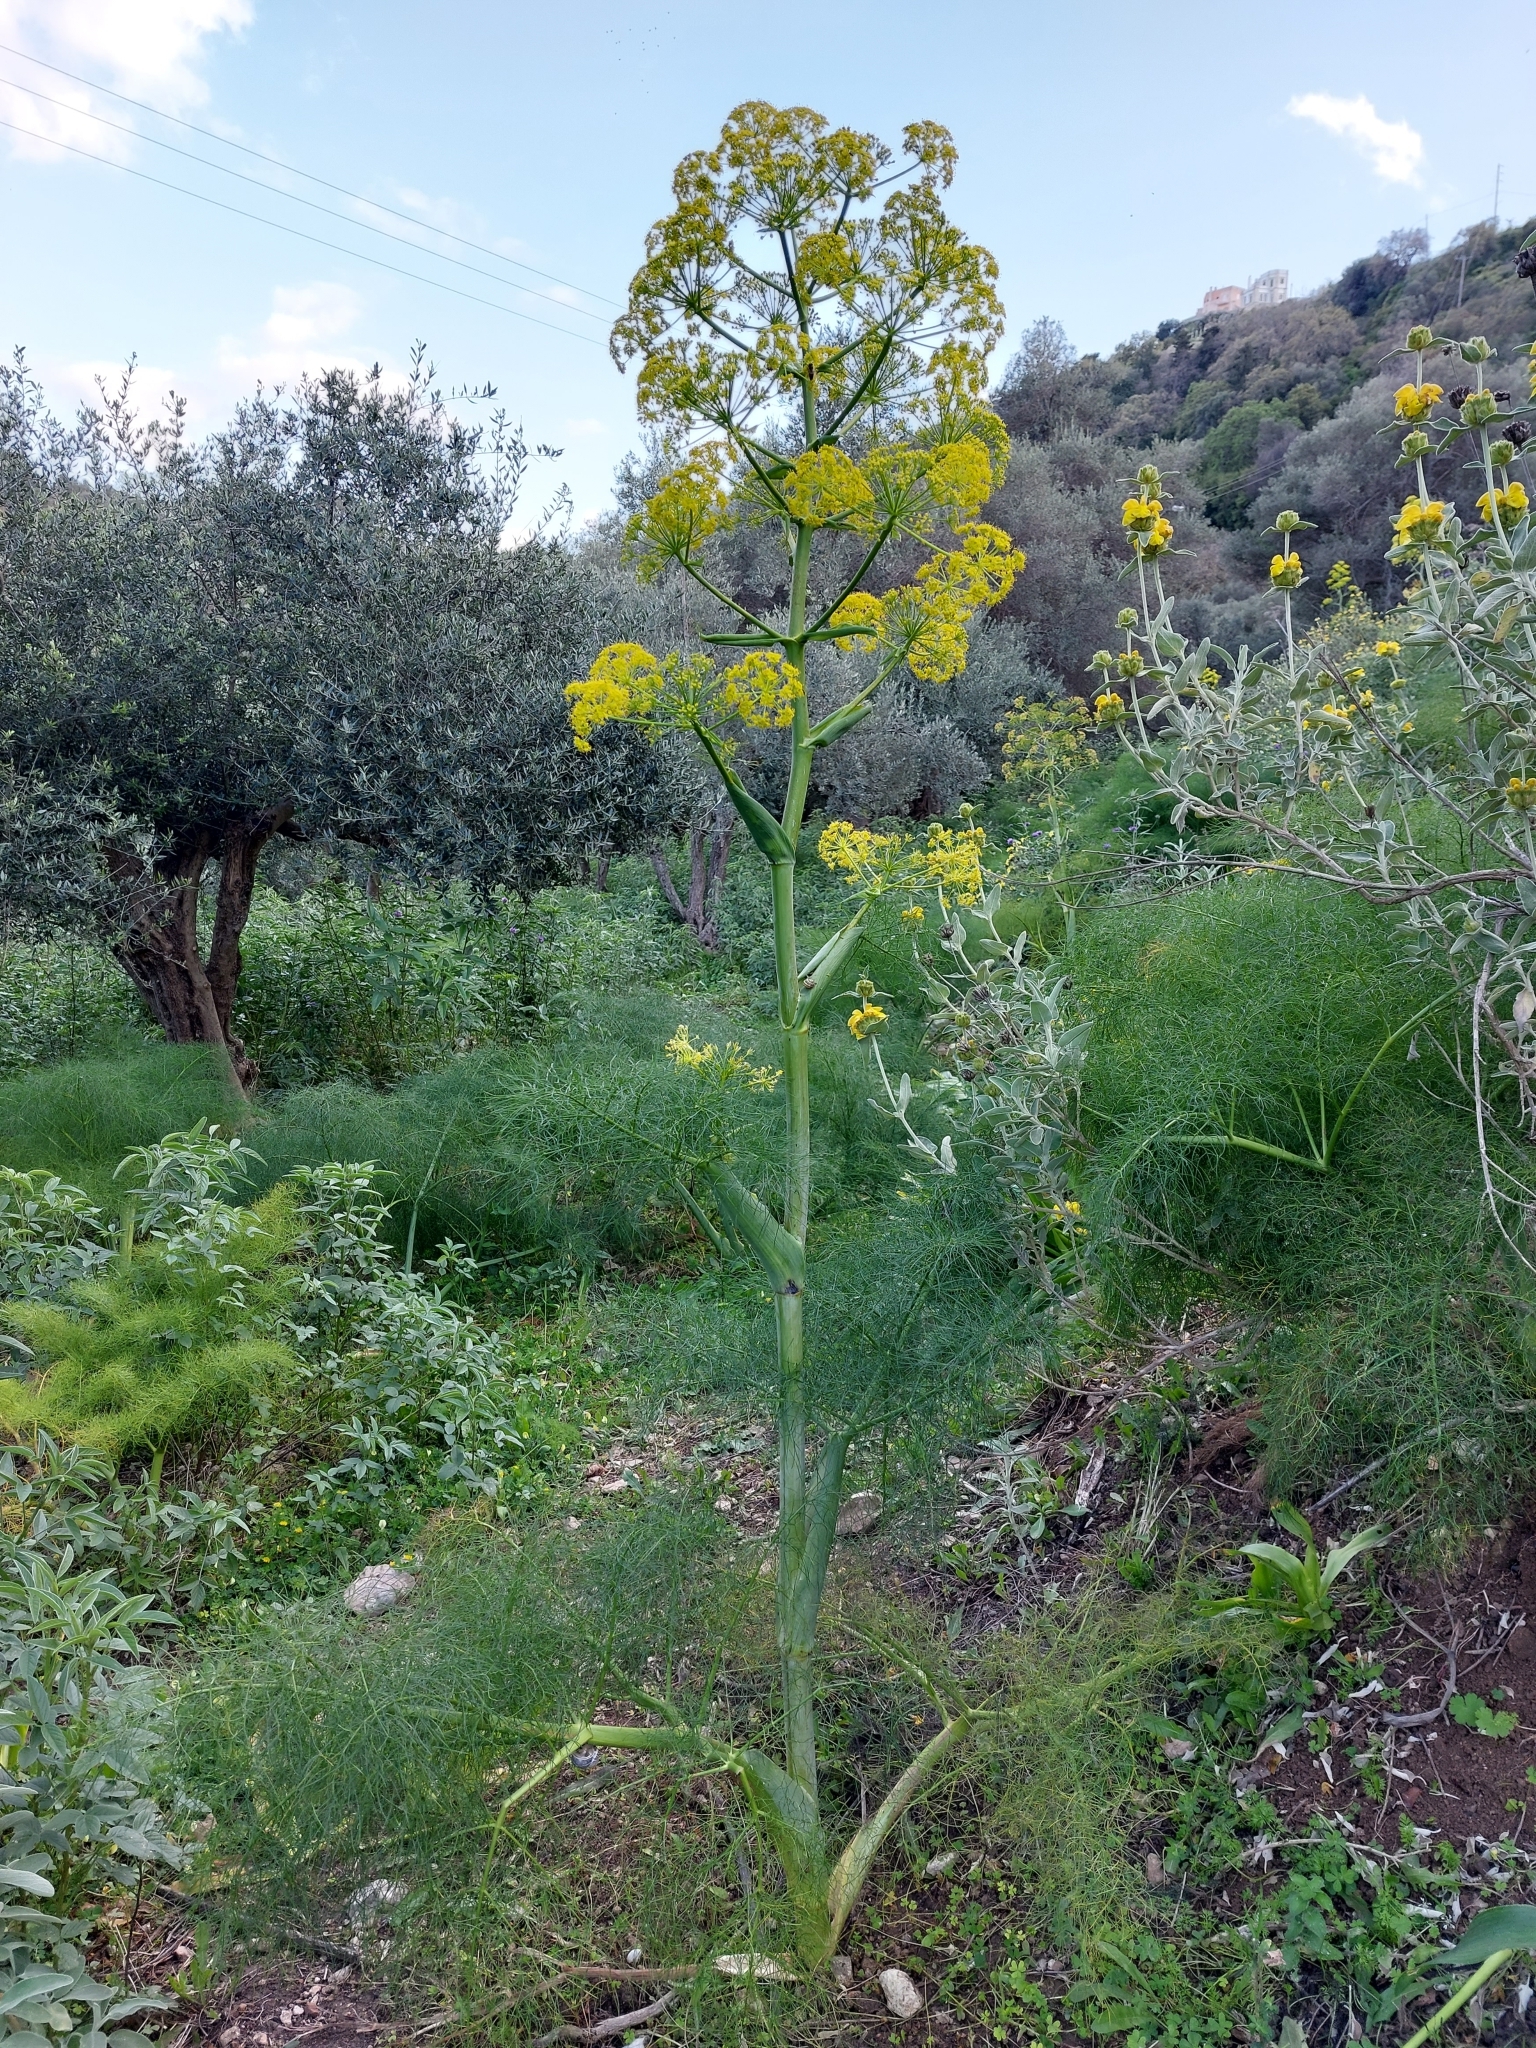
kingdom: Plantae
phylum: Tracheophyta
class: Magnoliopsida
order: Apiales
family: Apiaceae
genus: Ferula
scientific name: Ferula communis
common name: Giant fennel
